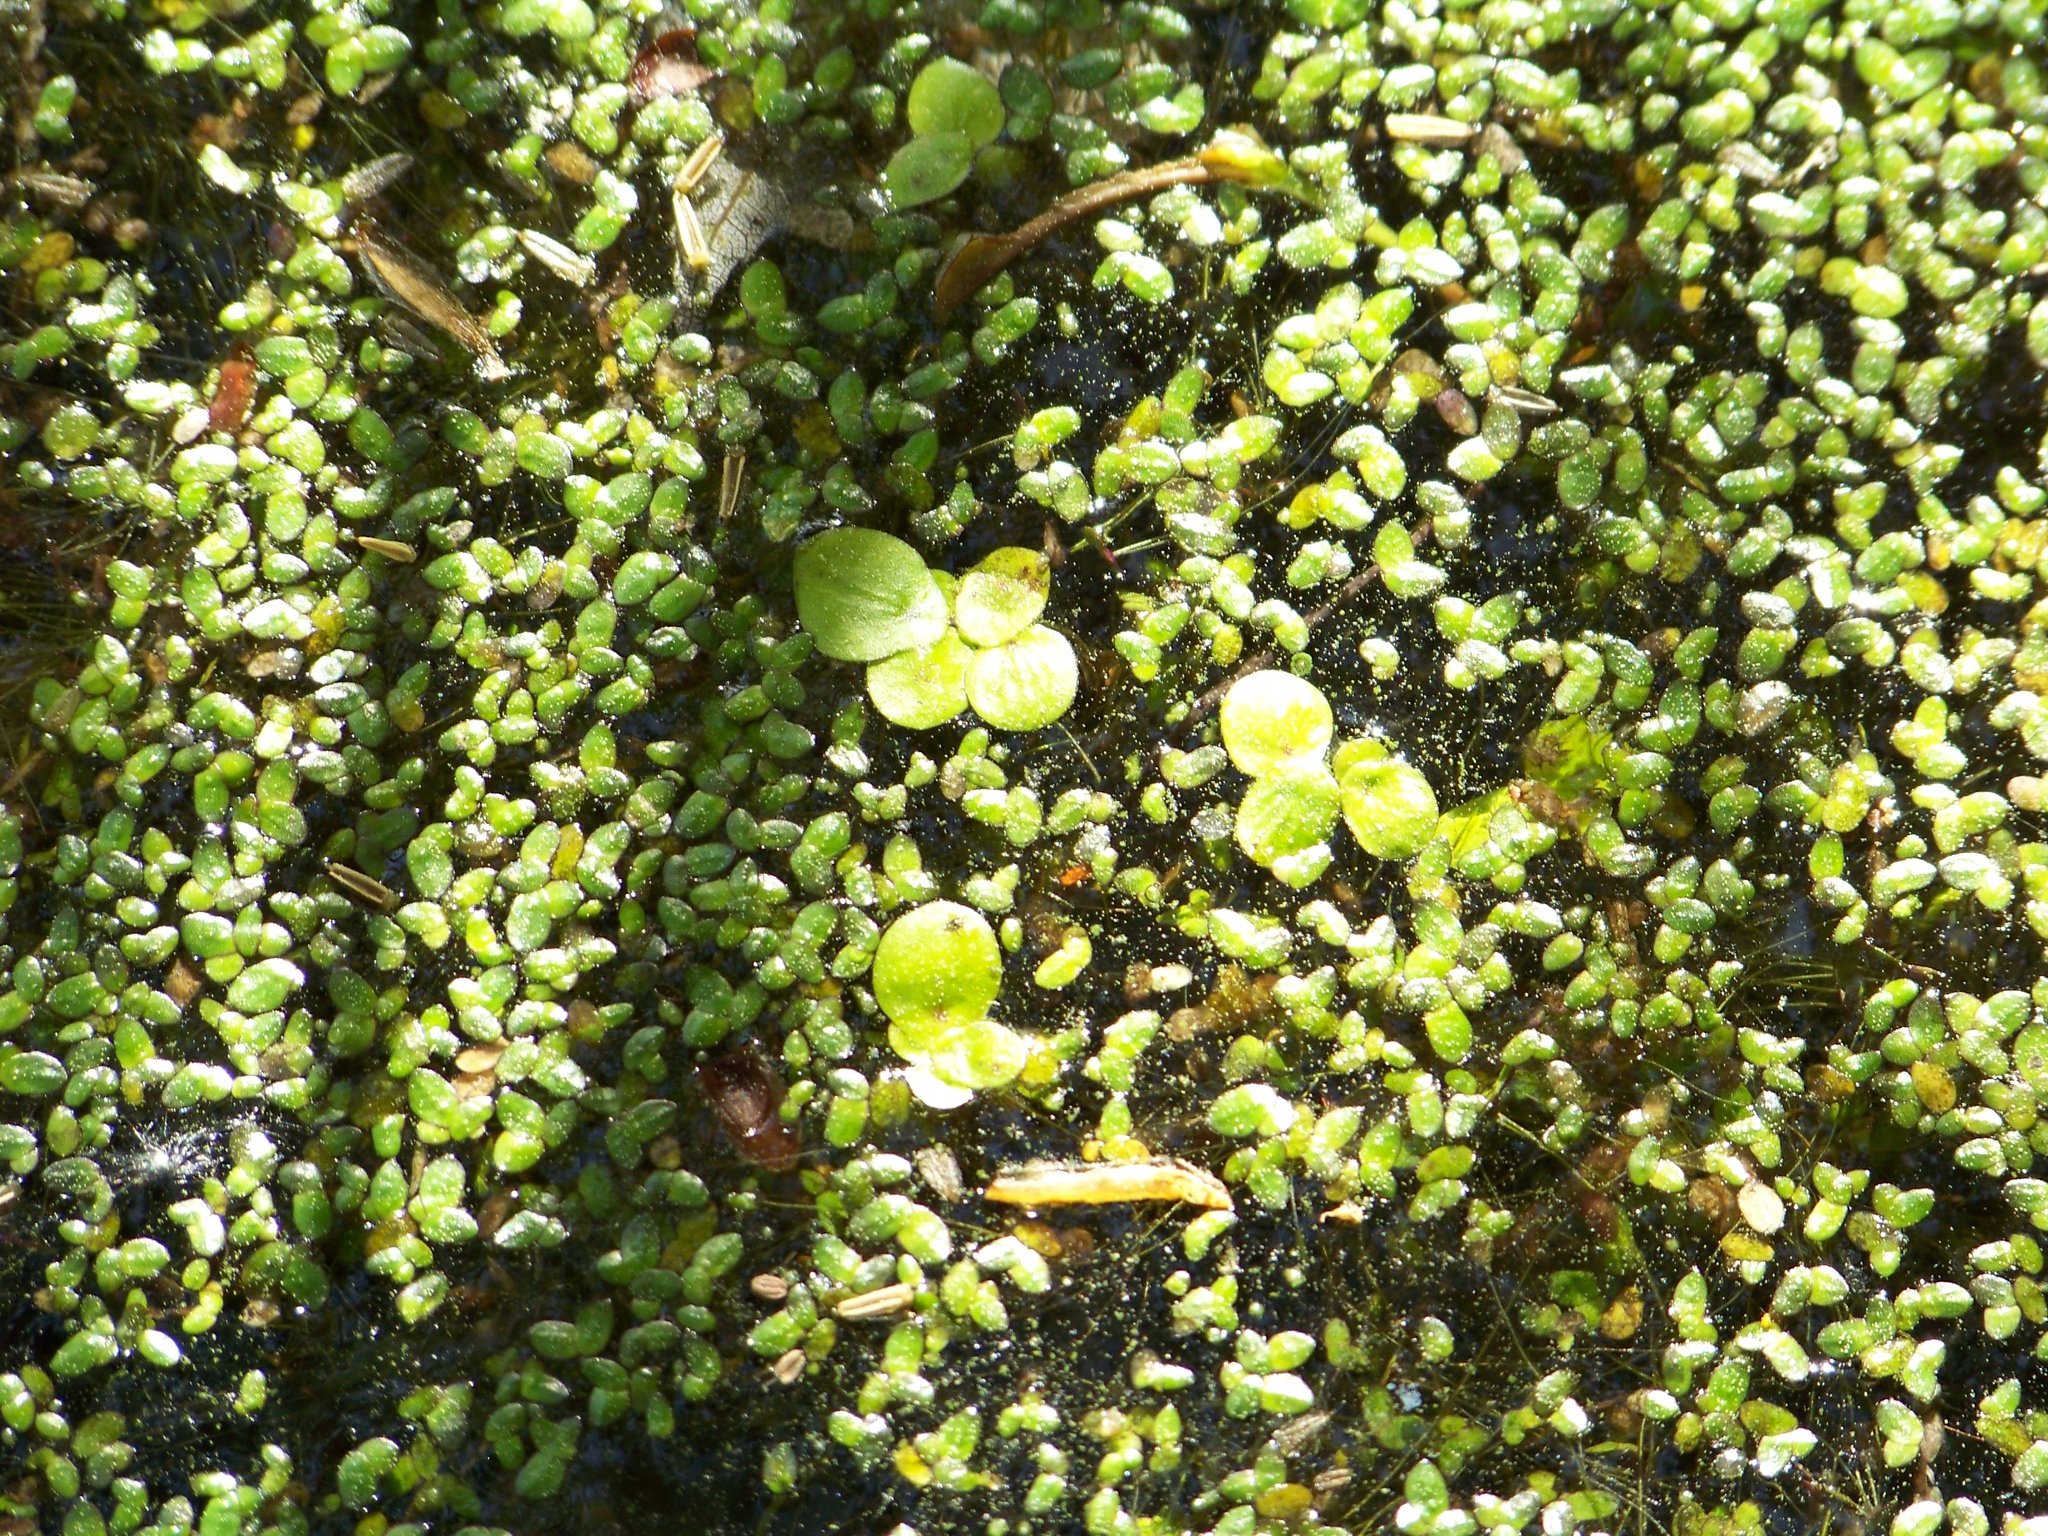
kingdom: Plantae
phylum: Tracheophyta
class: Liliopsida
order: Alismatales
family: Araceae
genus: Spirodela
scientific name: Spirodela polyrhiza
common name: Great duckweed
